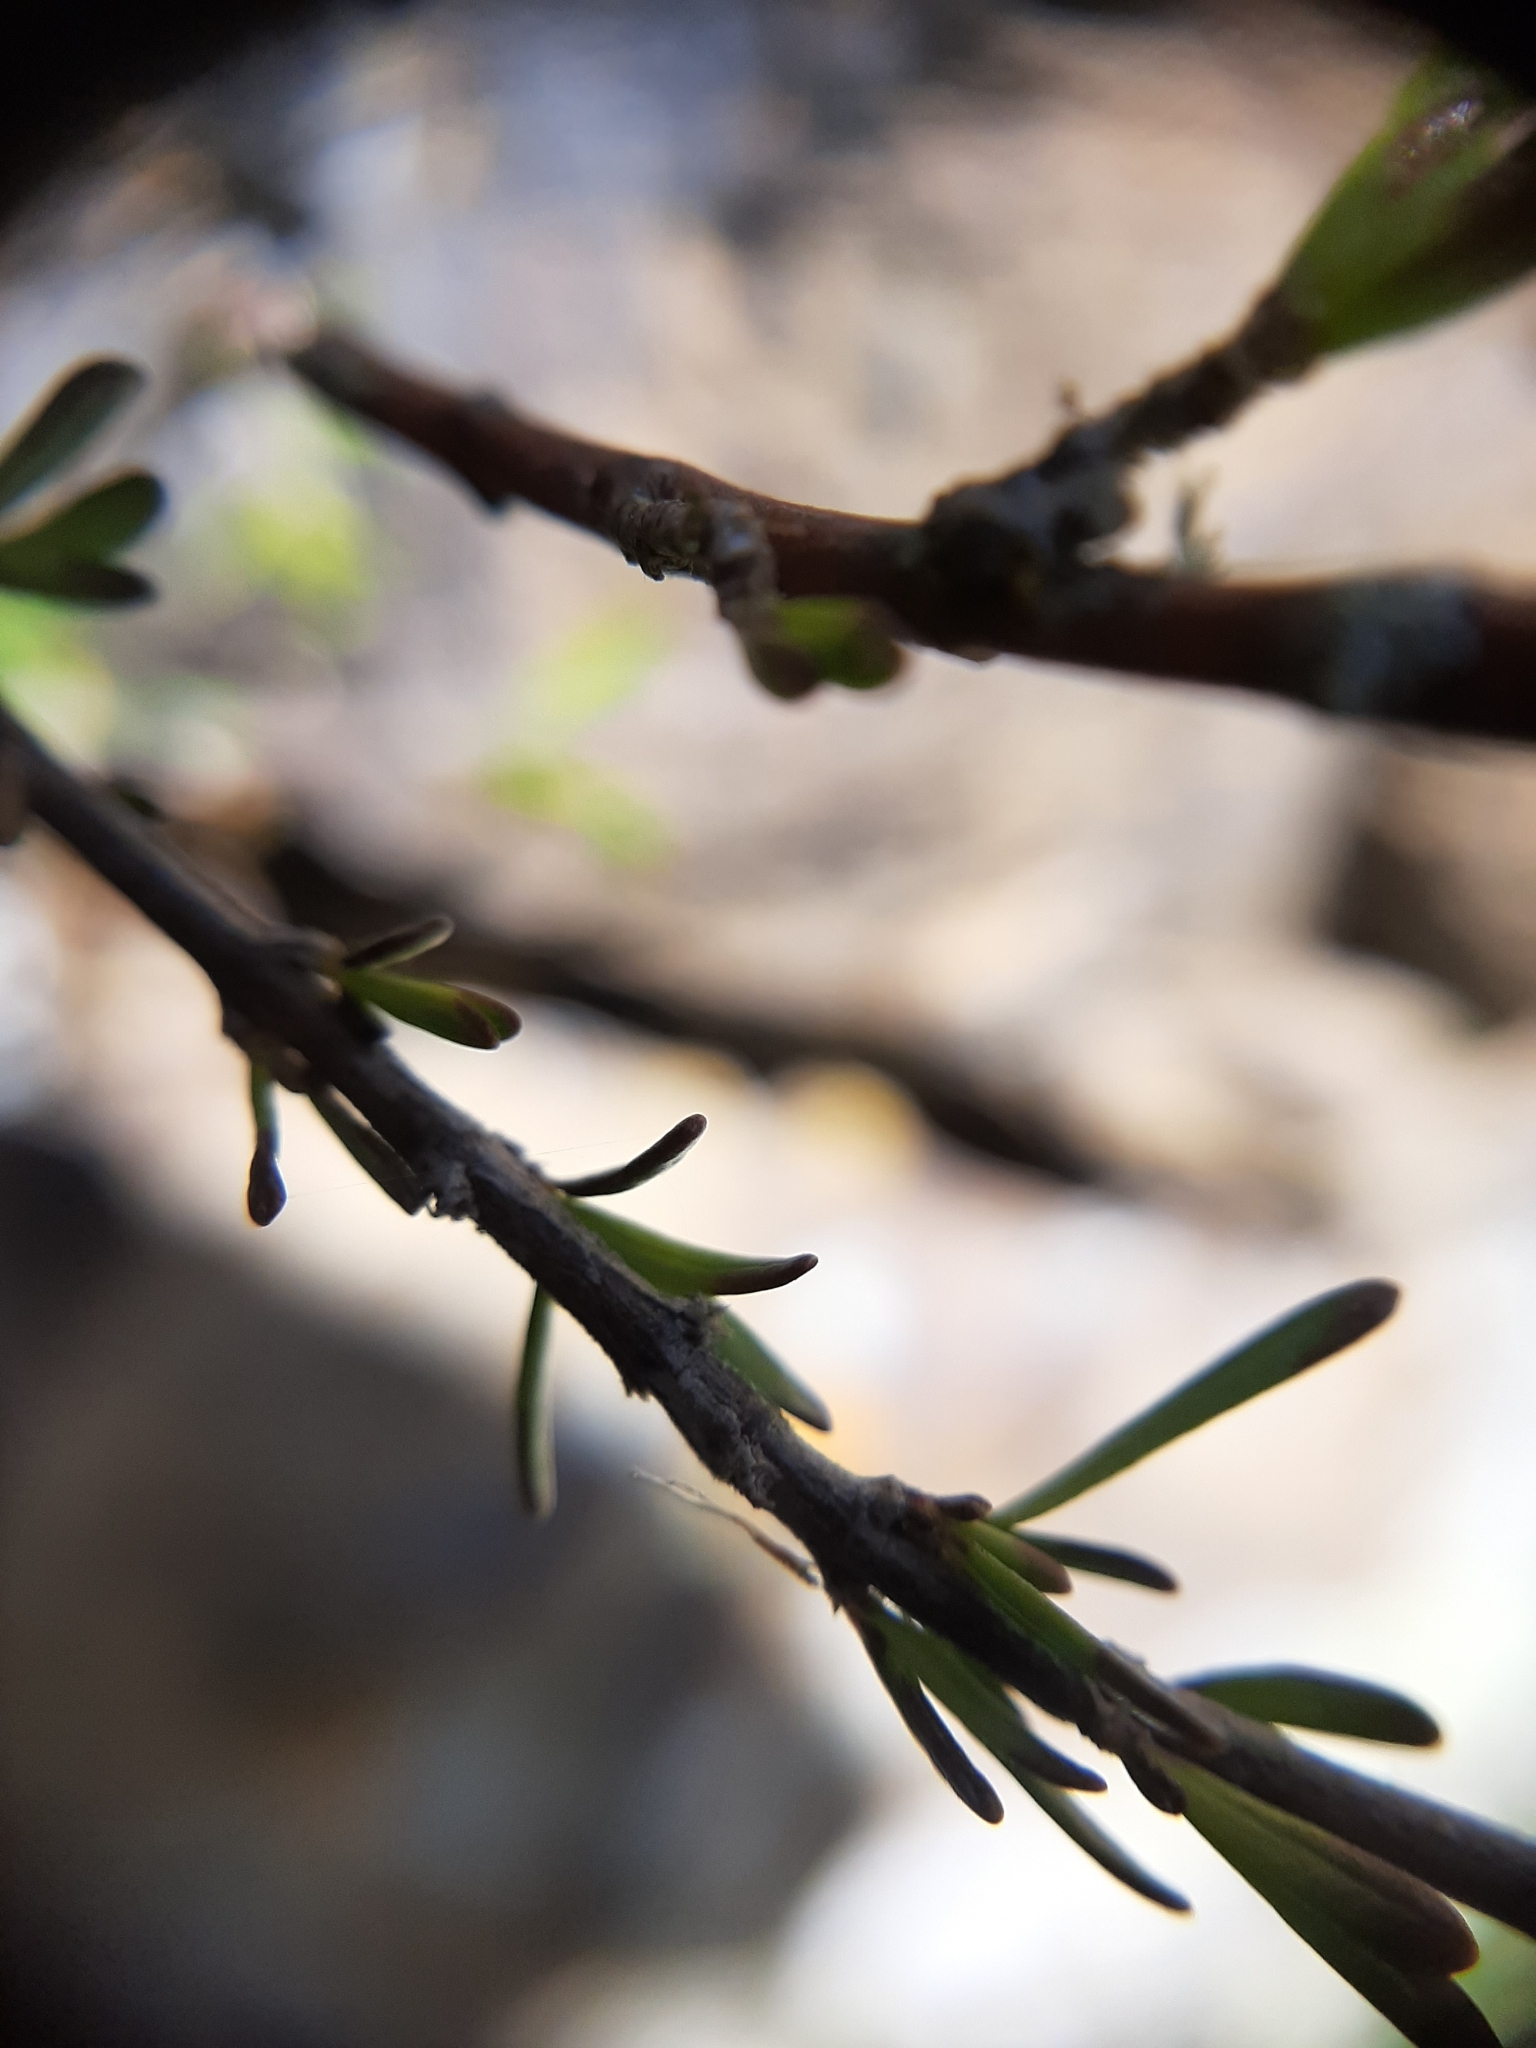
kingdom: Plantae
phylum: Tracheophyta
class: Magnoliopsida
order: Gentianales
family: Rubiaceae
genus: Coprosma
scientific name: Coprosma acerosa
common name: Sand coprosma
